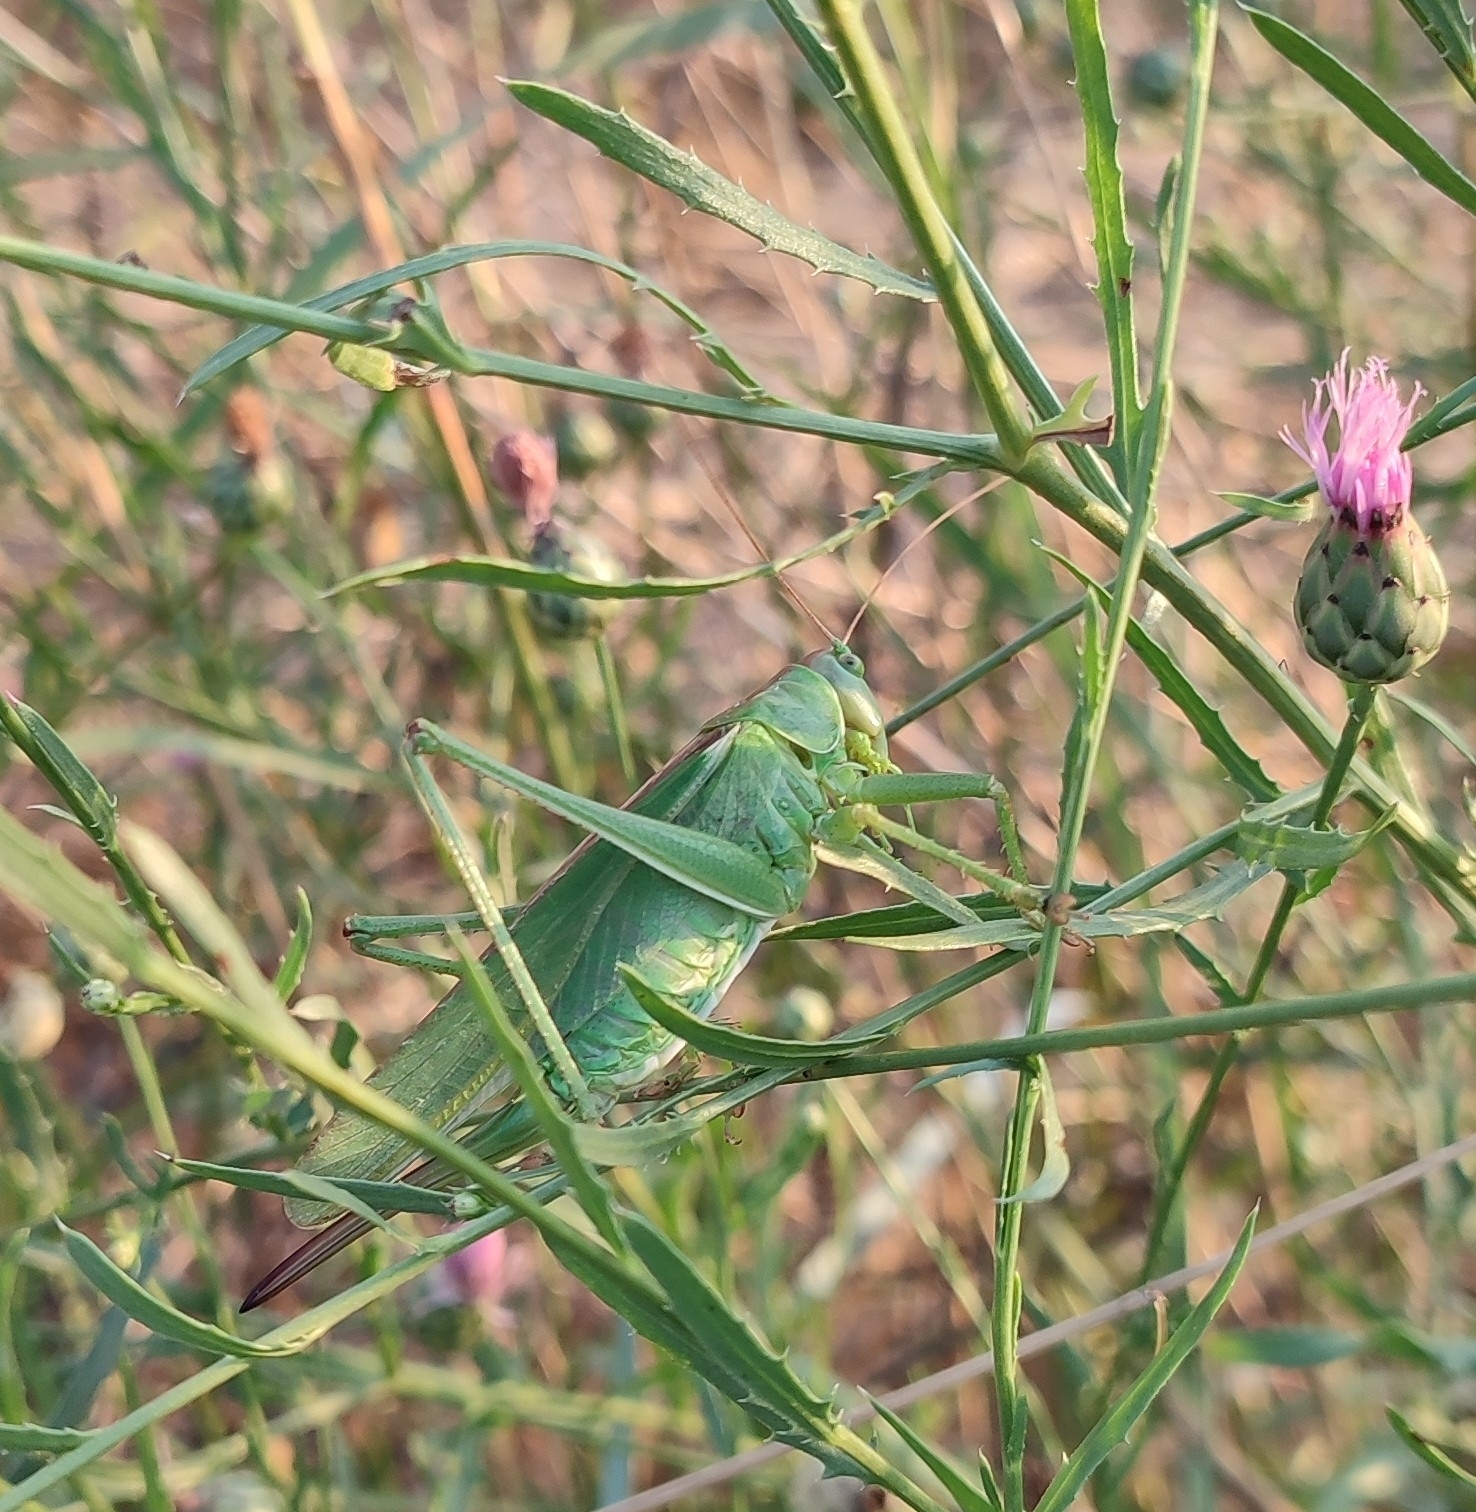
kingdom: Animalia
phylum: Arthropoda
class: Insecta
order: Orthoptera
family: Tettigoniidae
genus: Tettigonia
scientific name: Tettigonia viridissima
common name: Great green bush-cricket
